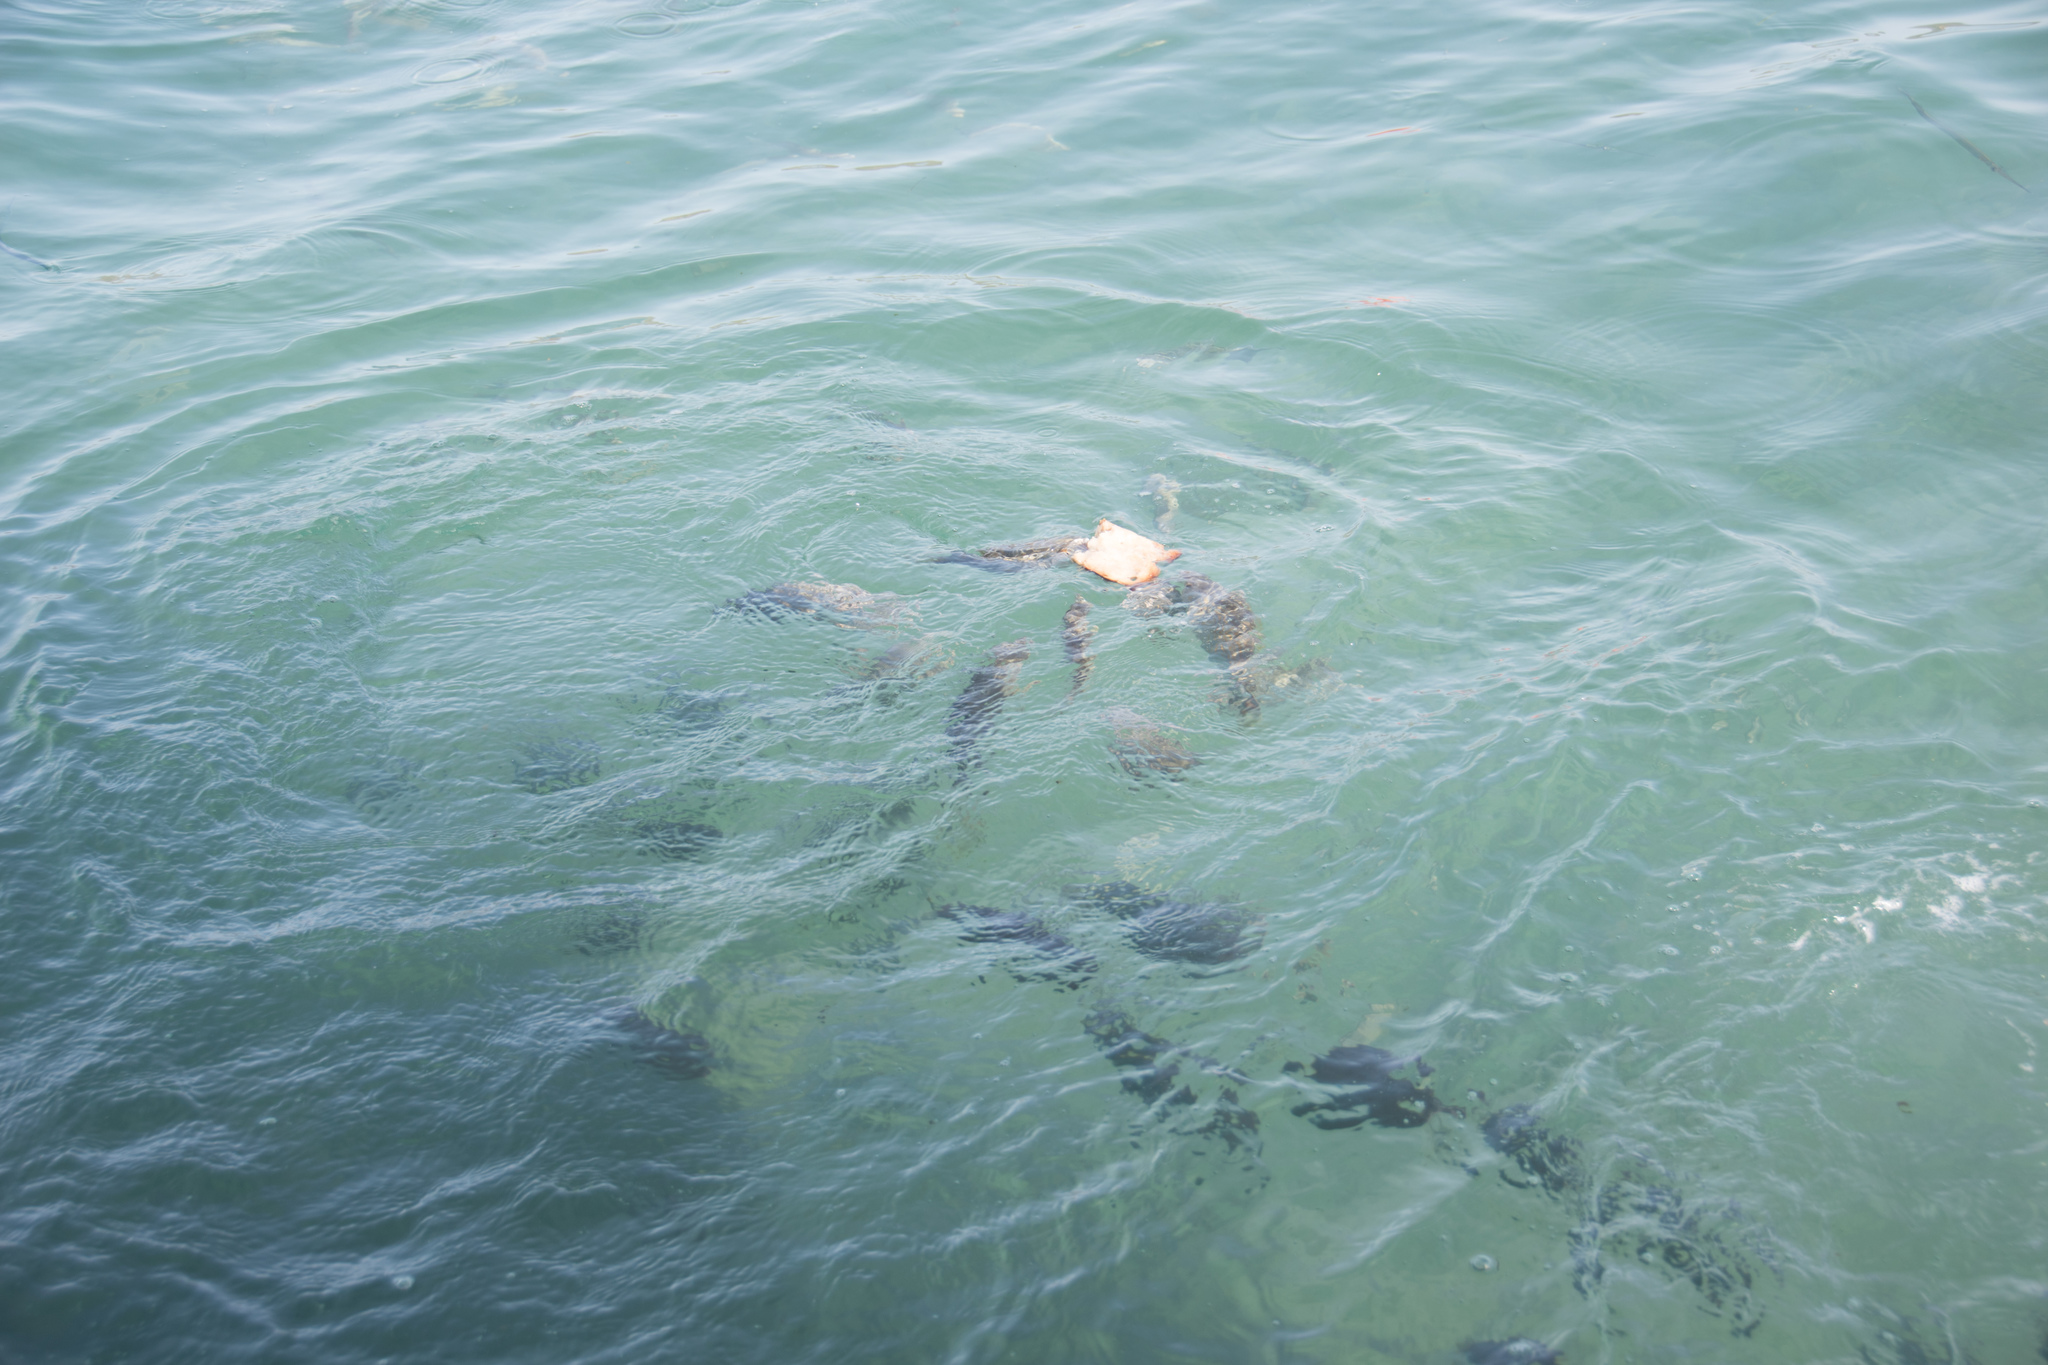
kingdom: Animalia
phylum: Chordata
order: Perciformes
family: Sparidae
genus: Sarpa
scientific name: Sarpa salpa
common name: Salema
